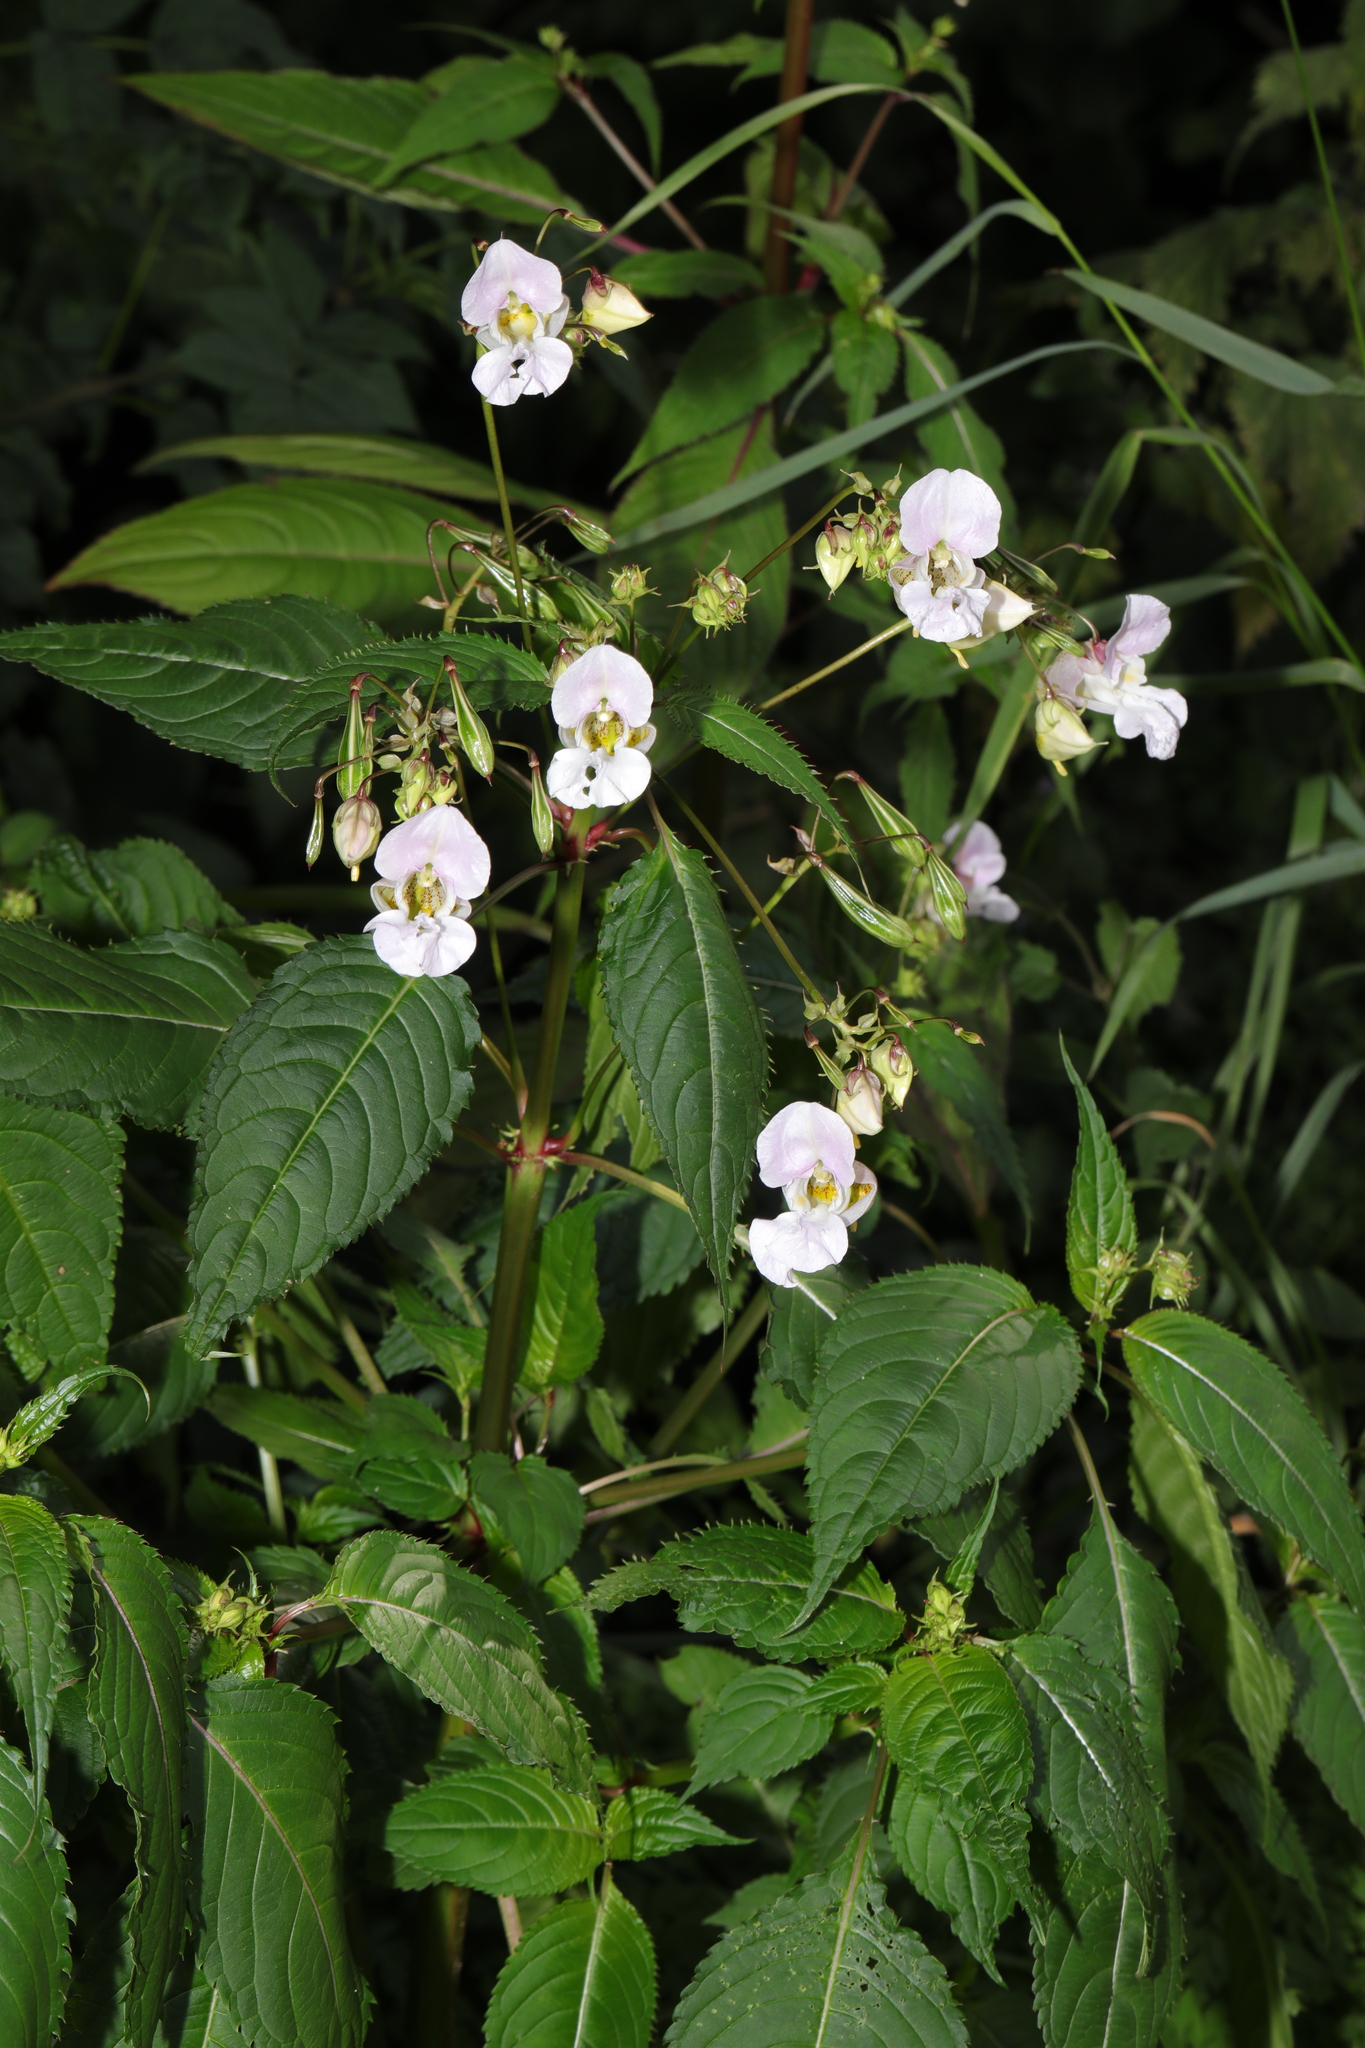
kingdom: Plantae
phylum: Tracheophyta
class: Magnoliopsida
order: Ericales
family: Balsaminaceae
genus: Impatiens
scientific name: Impatiens glandulifera
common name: Himalayan balsam
